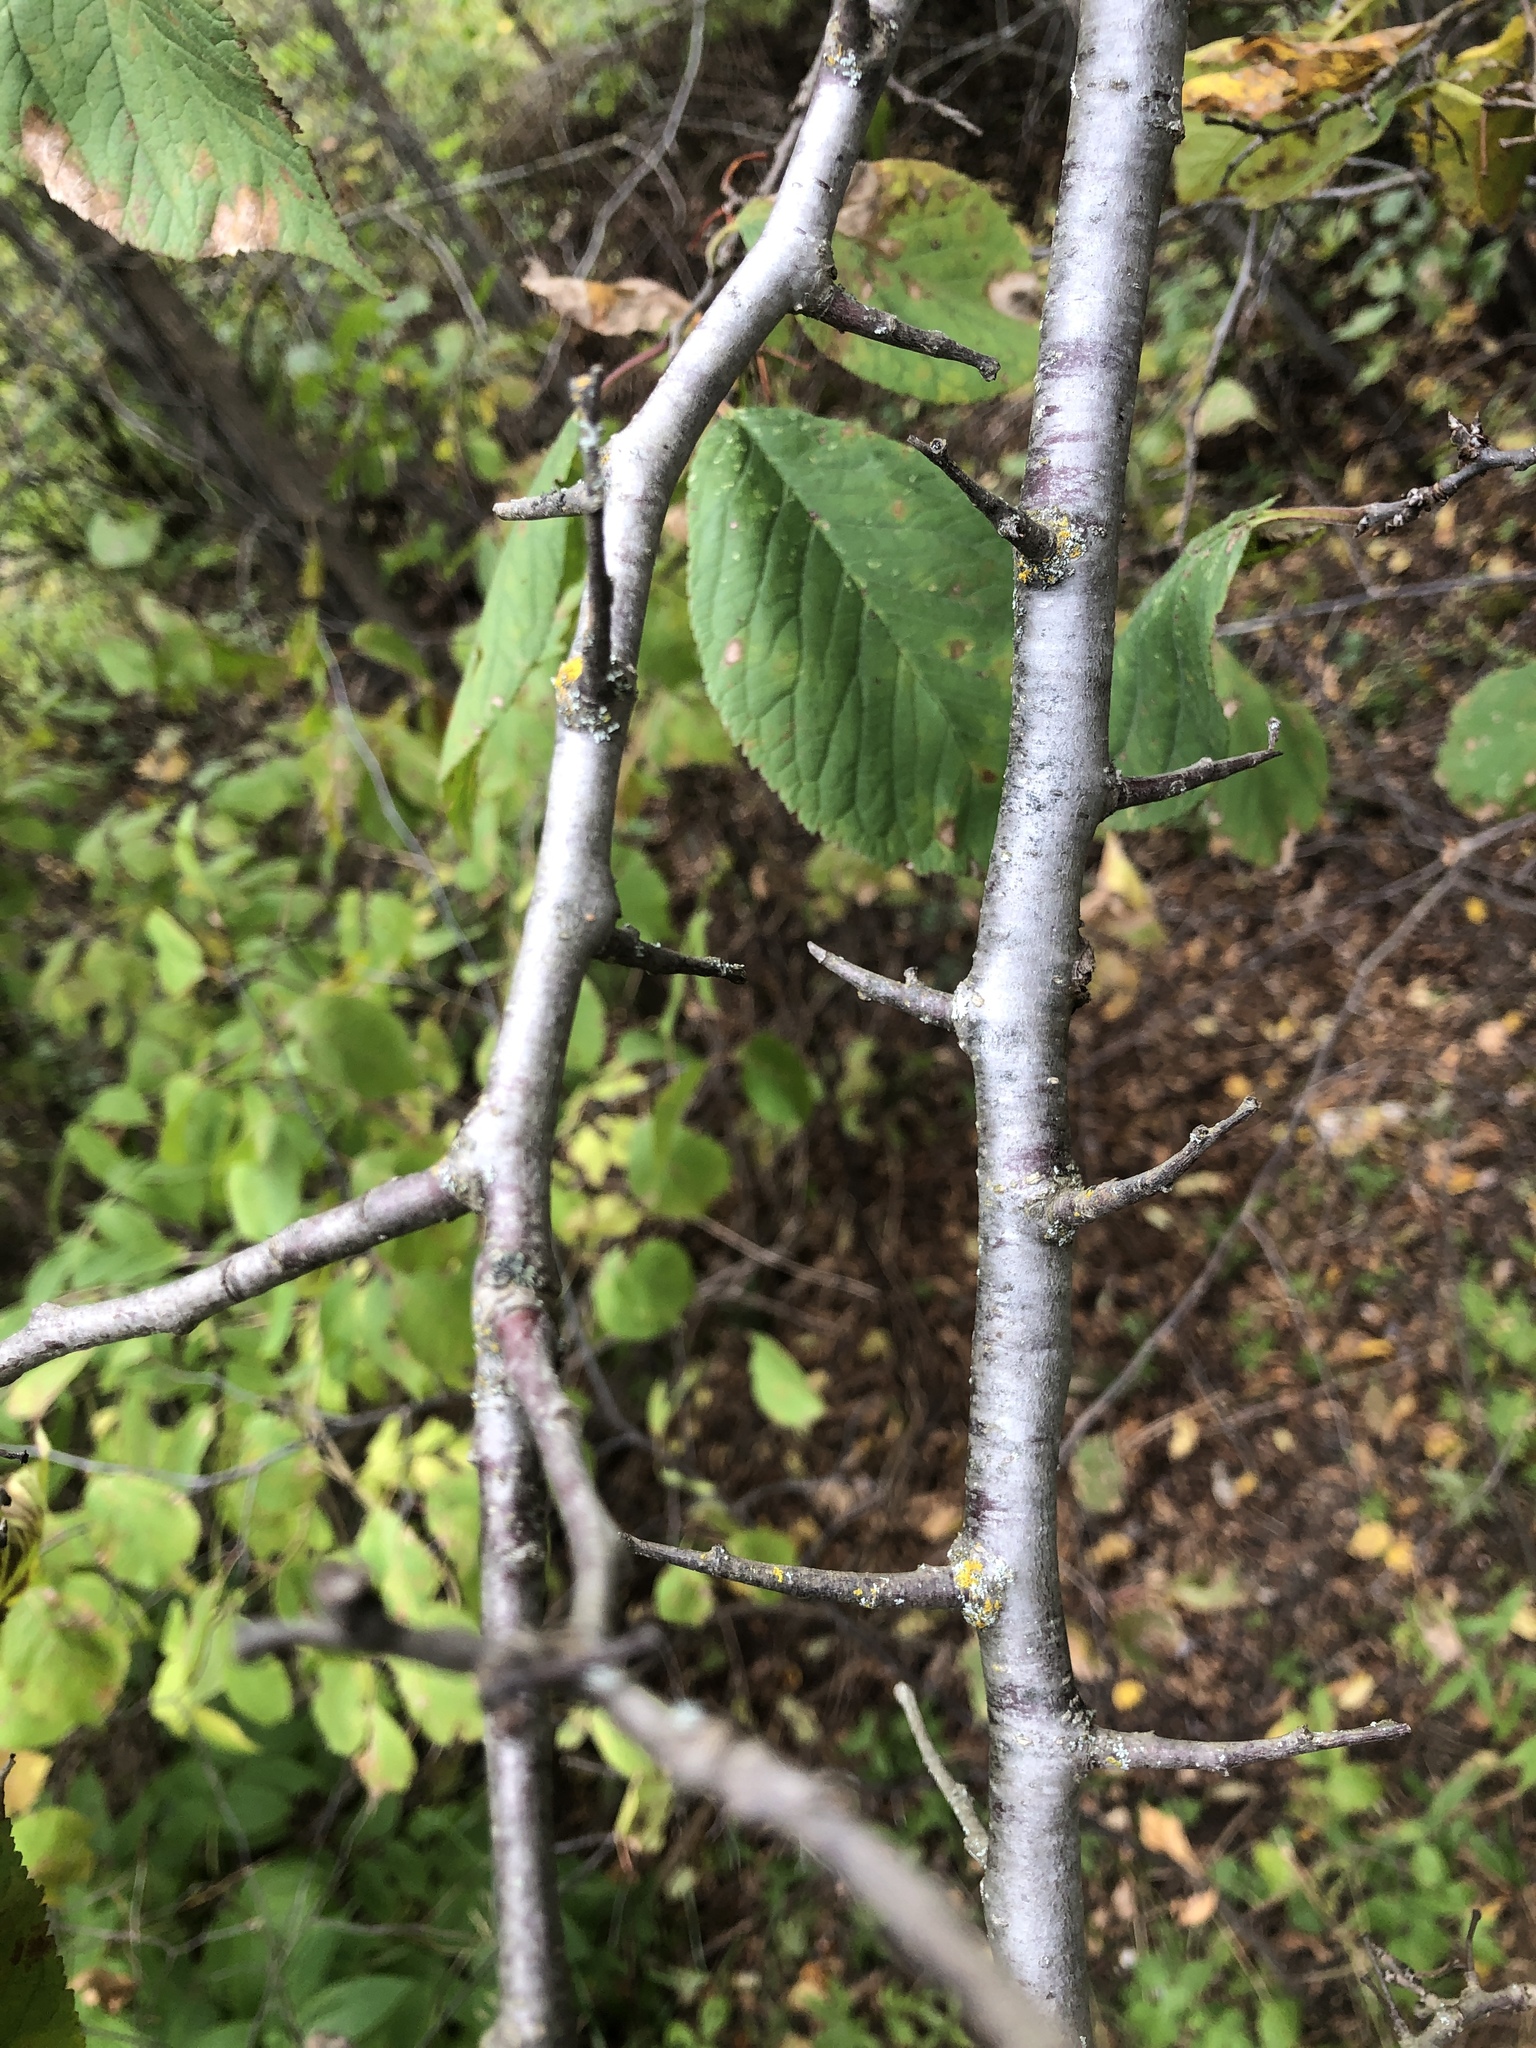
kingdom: Plantae
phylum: Tracheophyta
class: Magnoliopsida
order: Rosales
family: Rosaceae
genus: Prunus
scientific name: Prunus nigra
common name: Black plum
